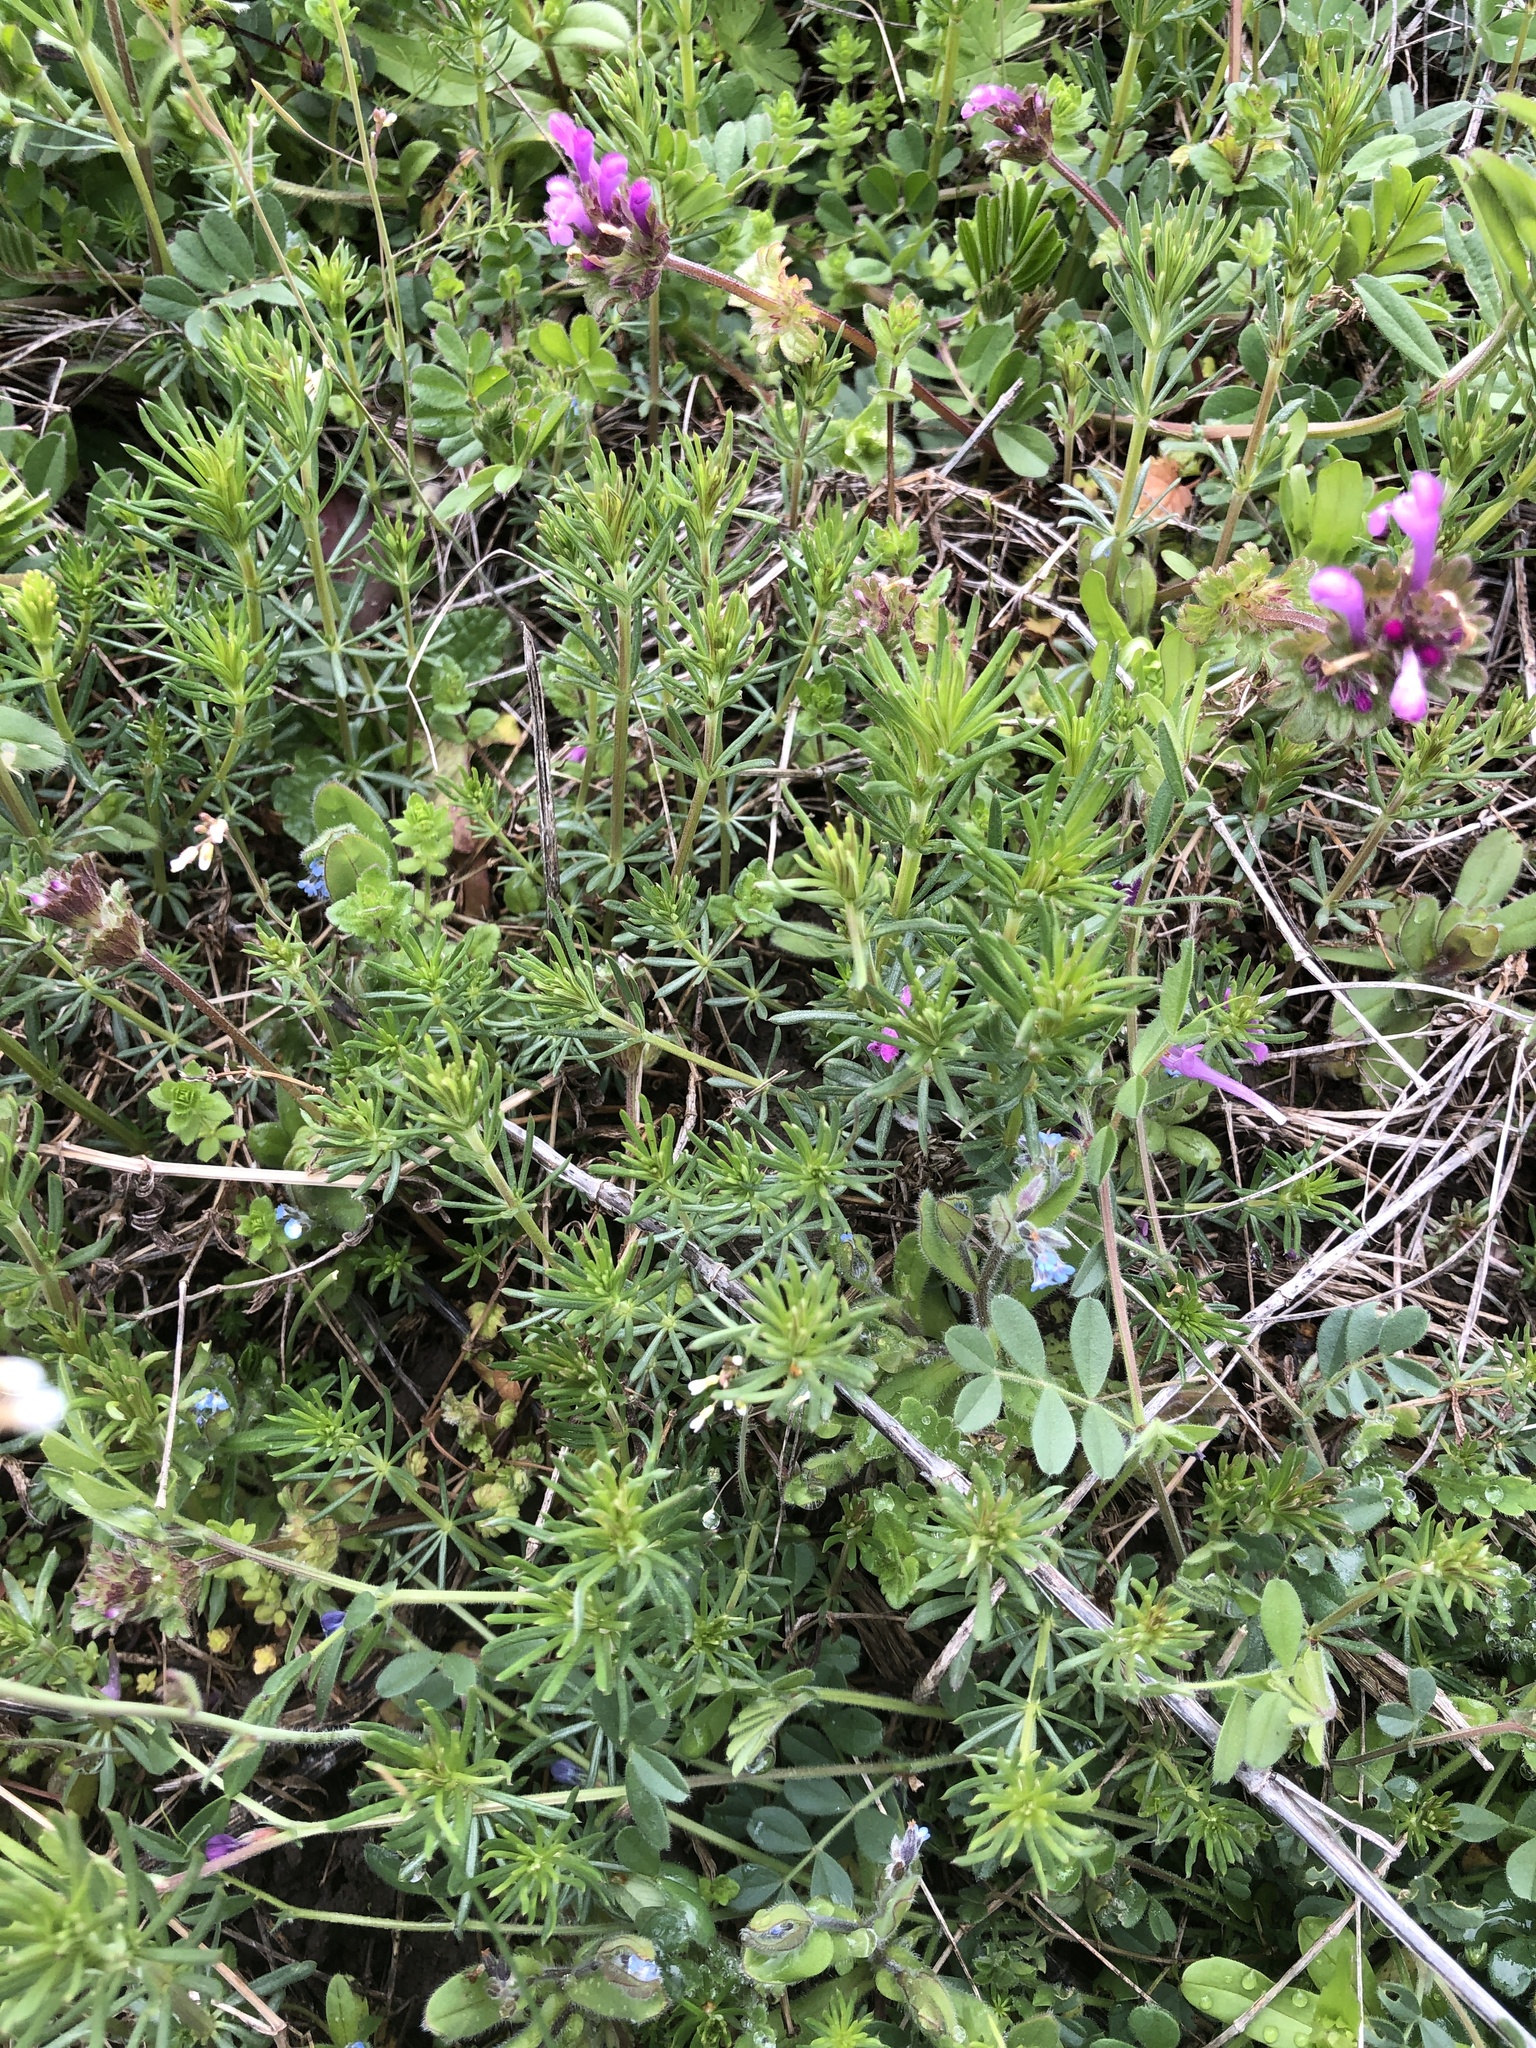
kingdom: Plantae
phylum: Tracheophyta
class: Magnoliopsida
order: Gentianales
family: Rubiaceae
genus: Galium
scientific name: Galium verum
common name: Lady's bedstraw
